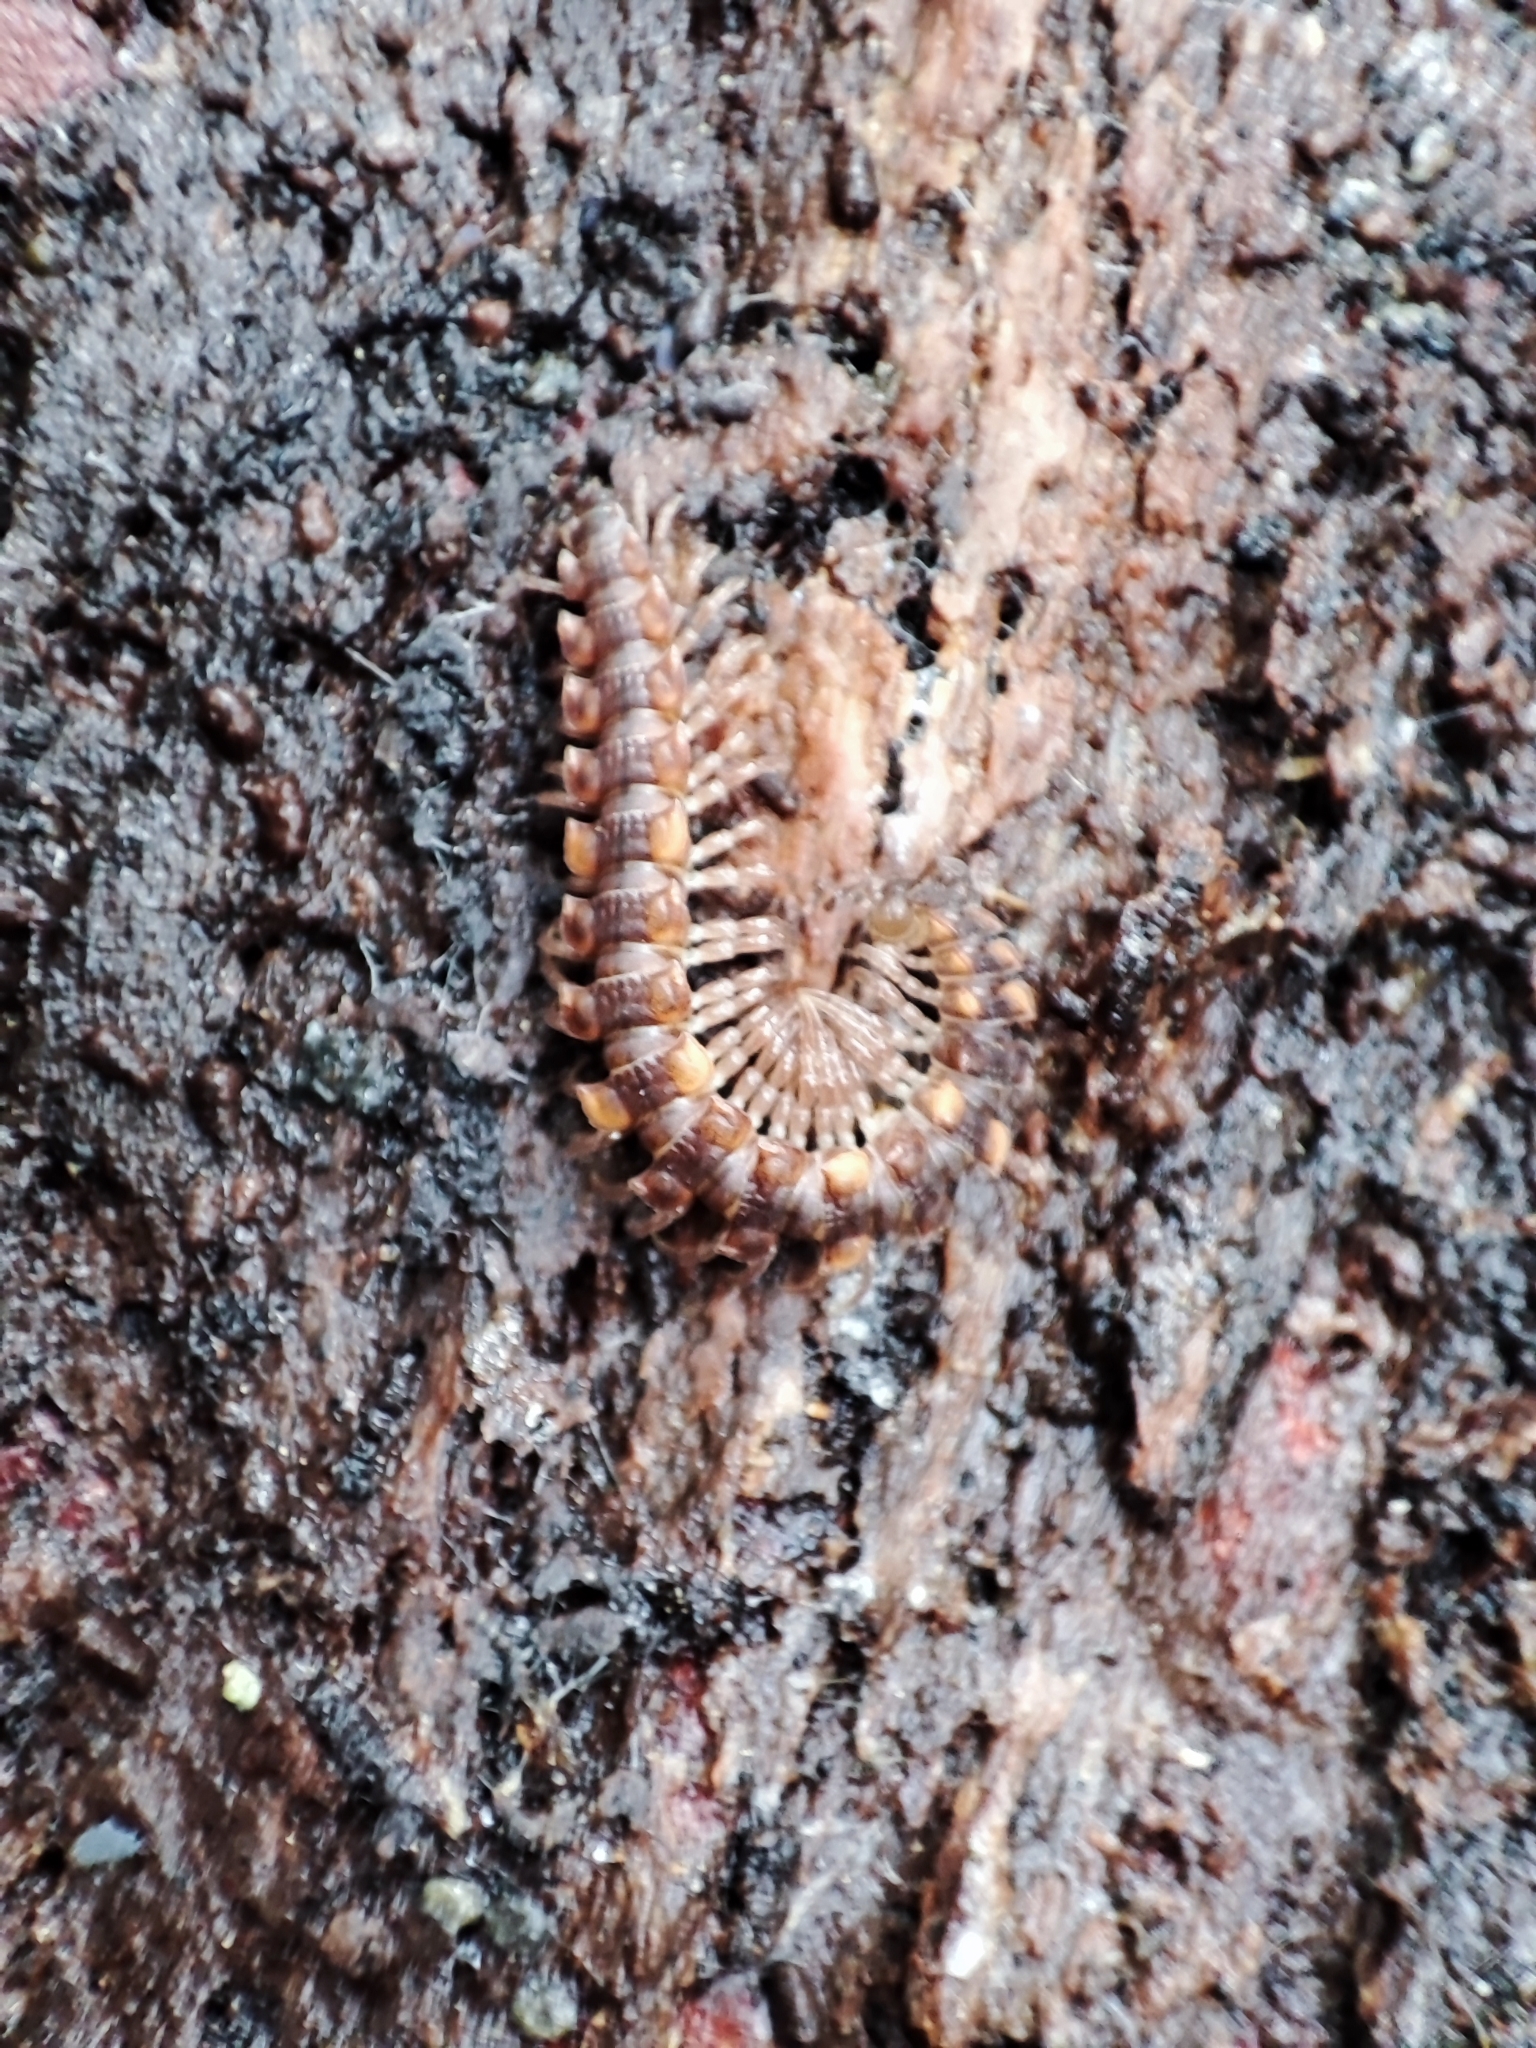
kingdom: Animalia
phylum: Arthropoda
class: Diplopoda
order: Polydesmida
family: Polydesmidae
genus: Polydesmus
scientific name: Polydesmus complanatus
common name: Flat-backed millipede
